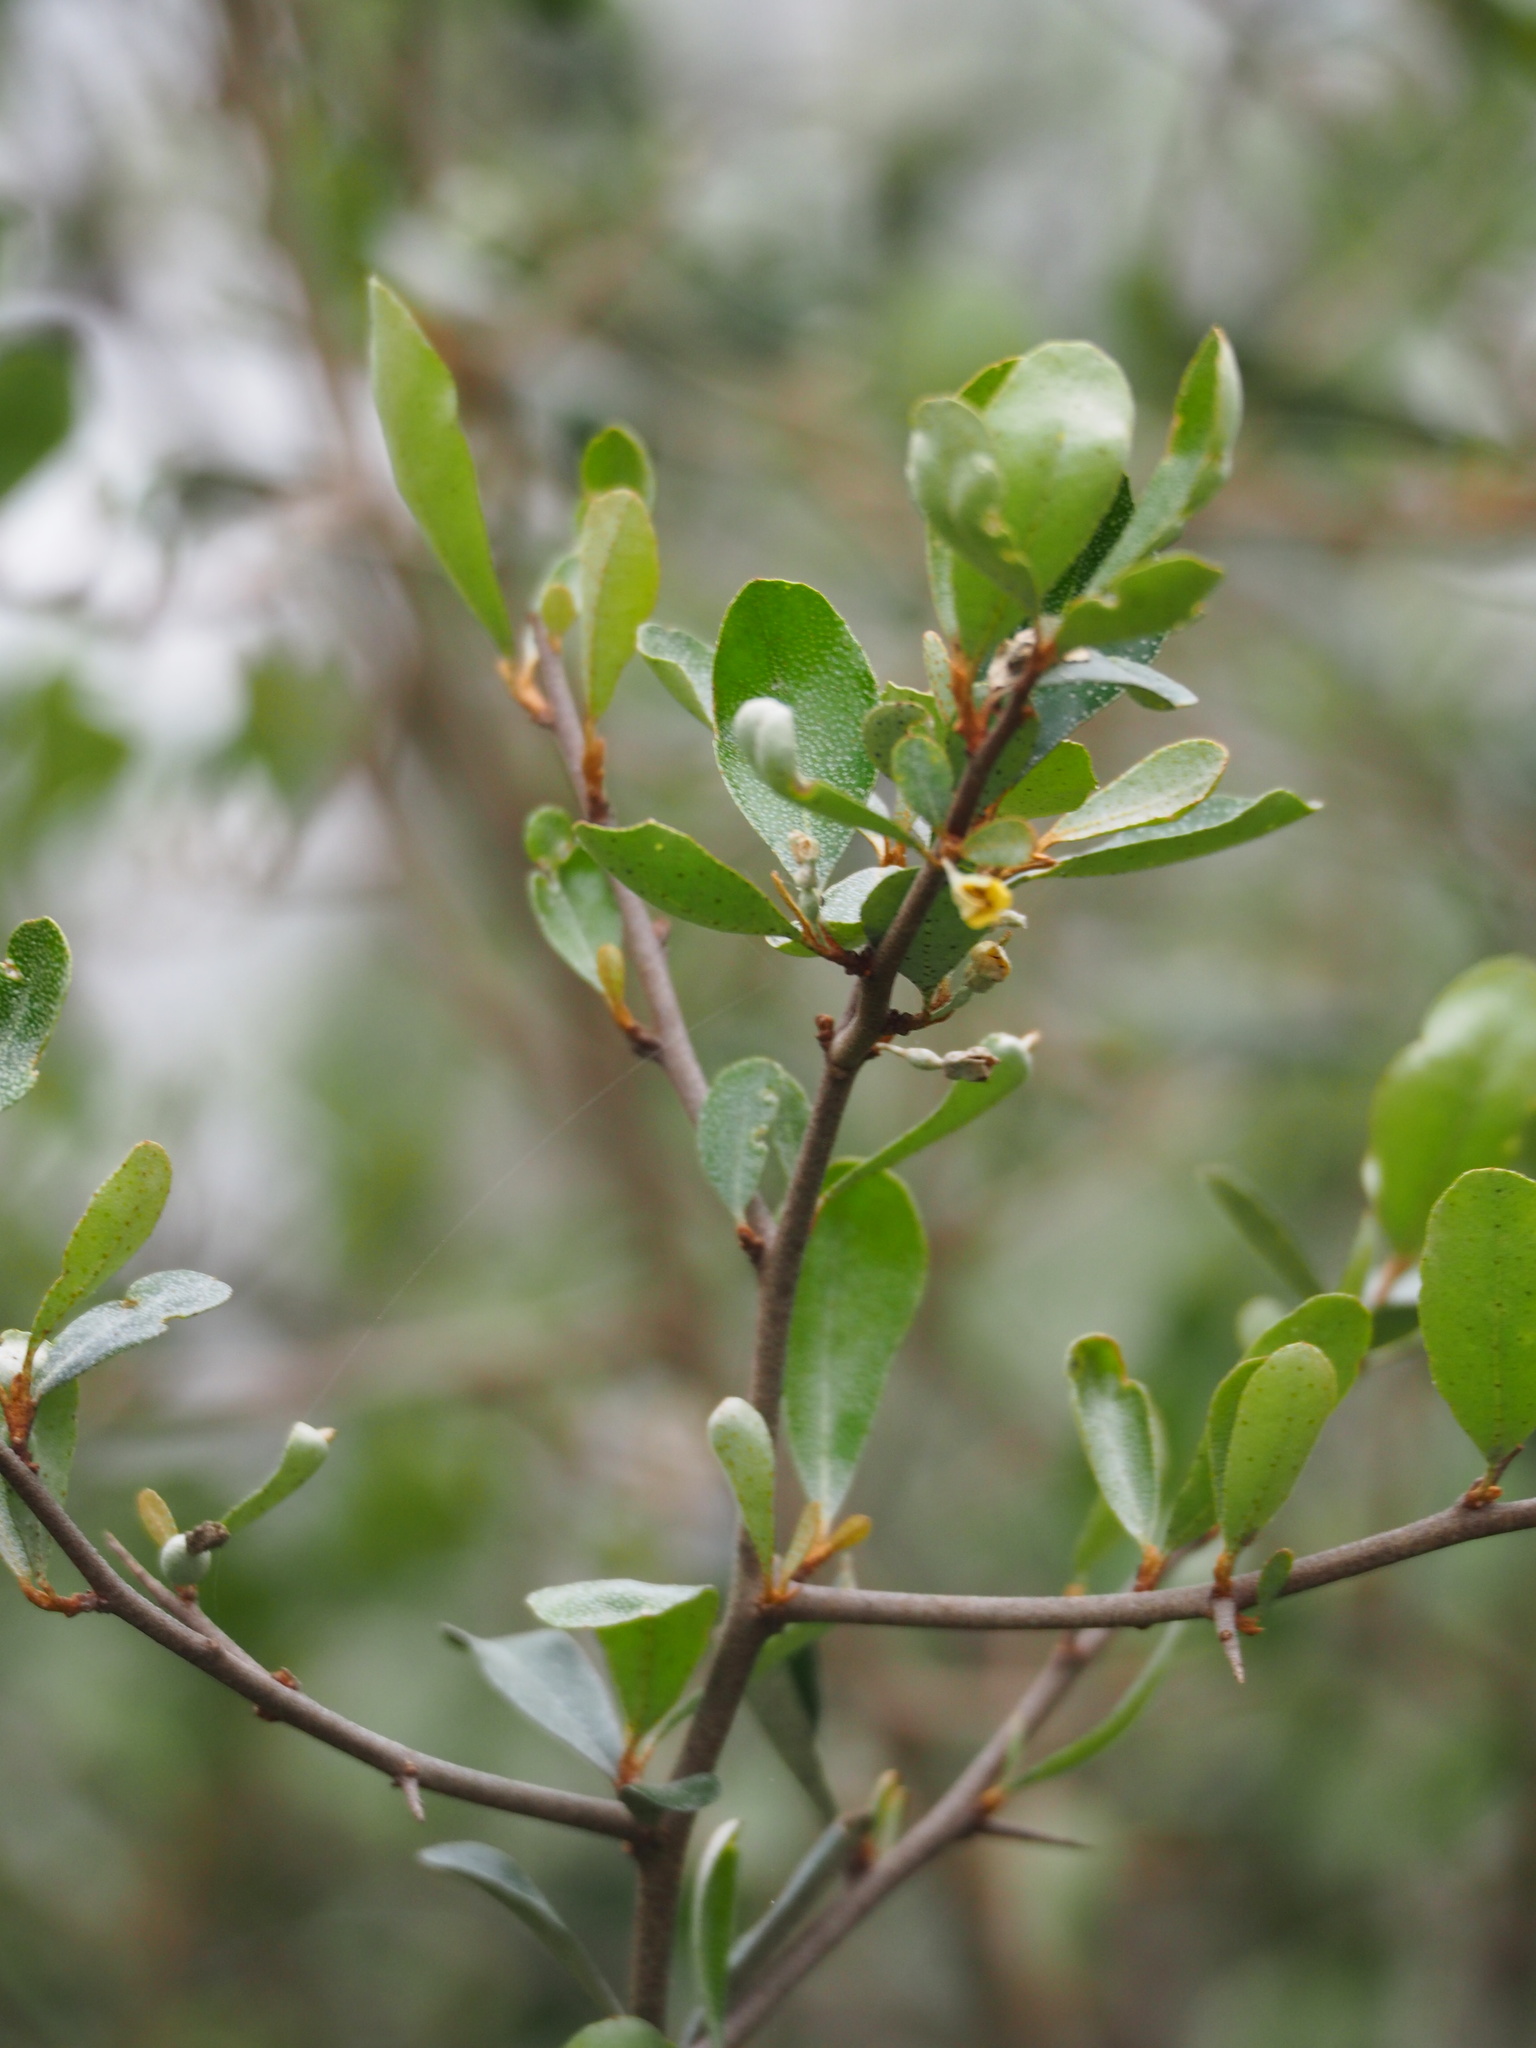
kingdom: Plantae
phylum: Tracheophyta
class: Magnoliopsida
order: Rosales
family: Elaeagnaceae
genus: Elaeagnus
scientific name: Elaeagnus oldhamii
